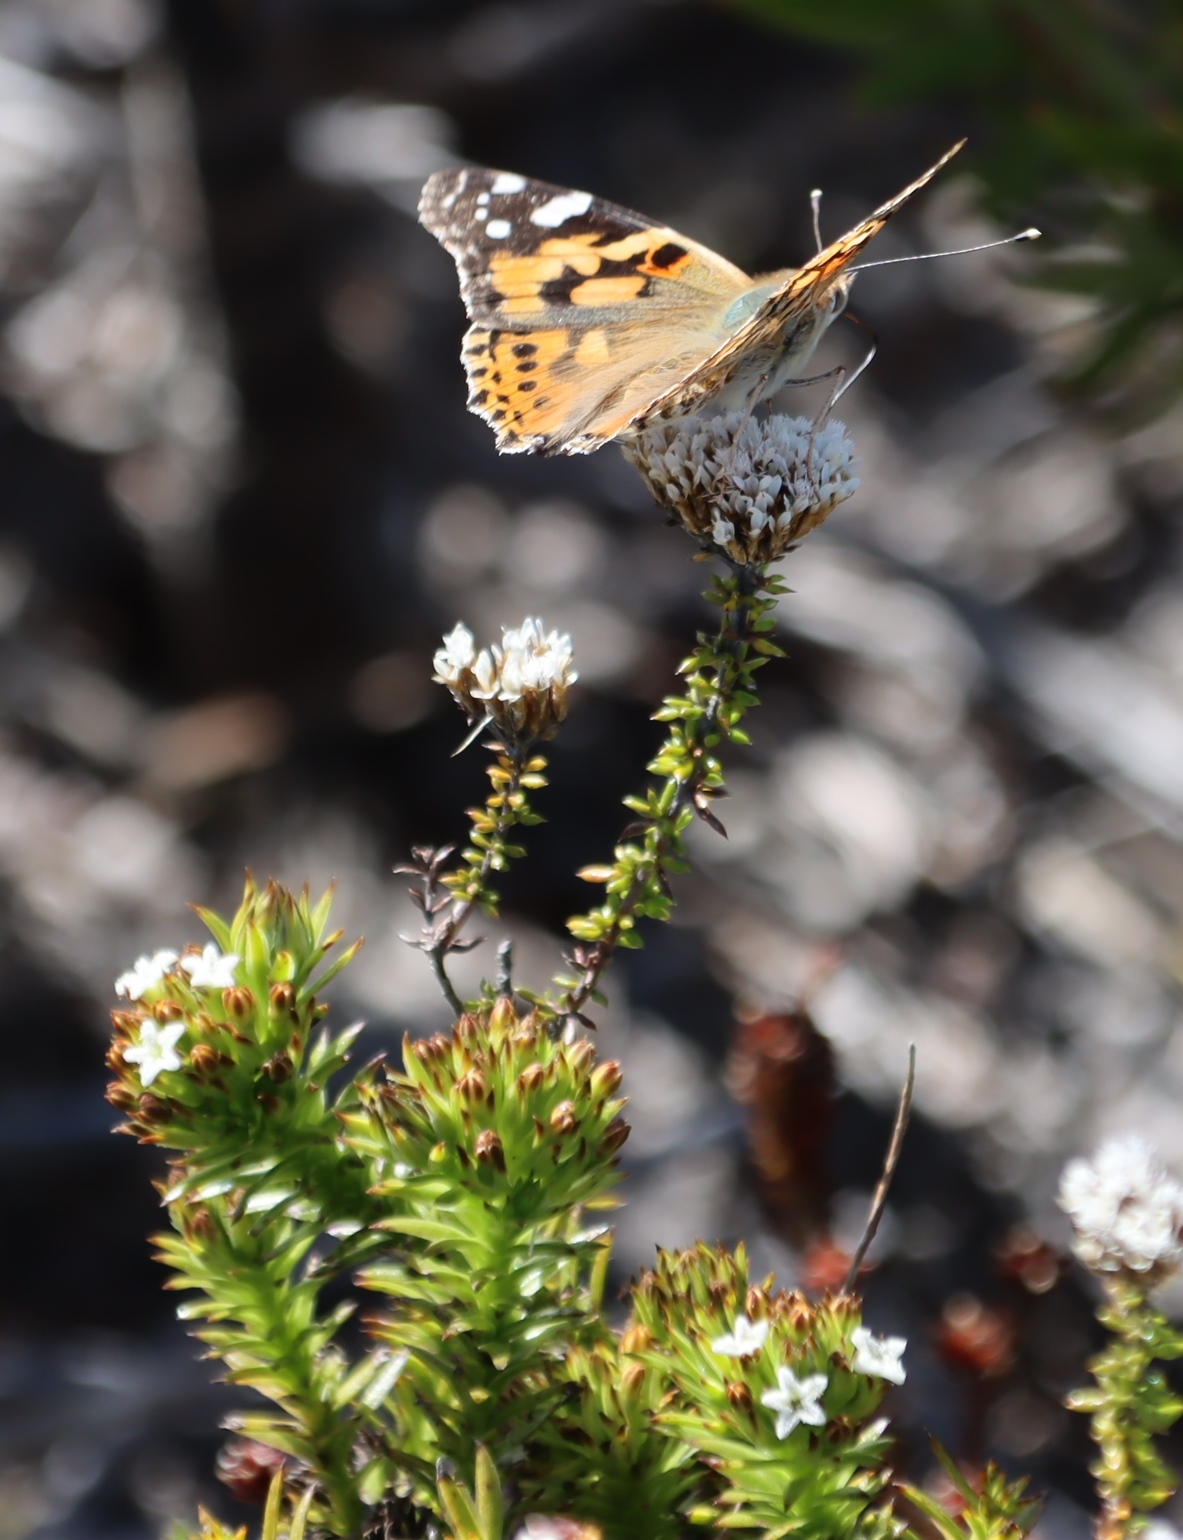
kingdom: Animalia
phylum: Arthropoda
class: Insecta
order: Lepidoptera
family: Nymphalidae
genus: Vanessa
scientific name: Vanessa cardui
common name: Painted lady
